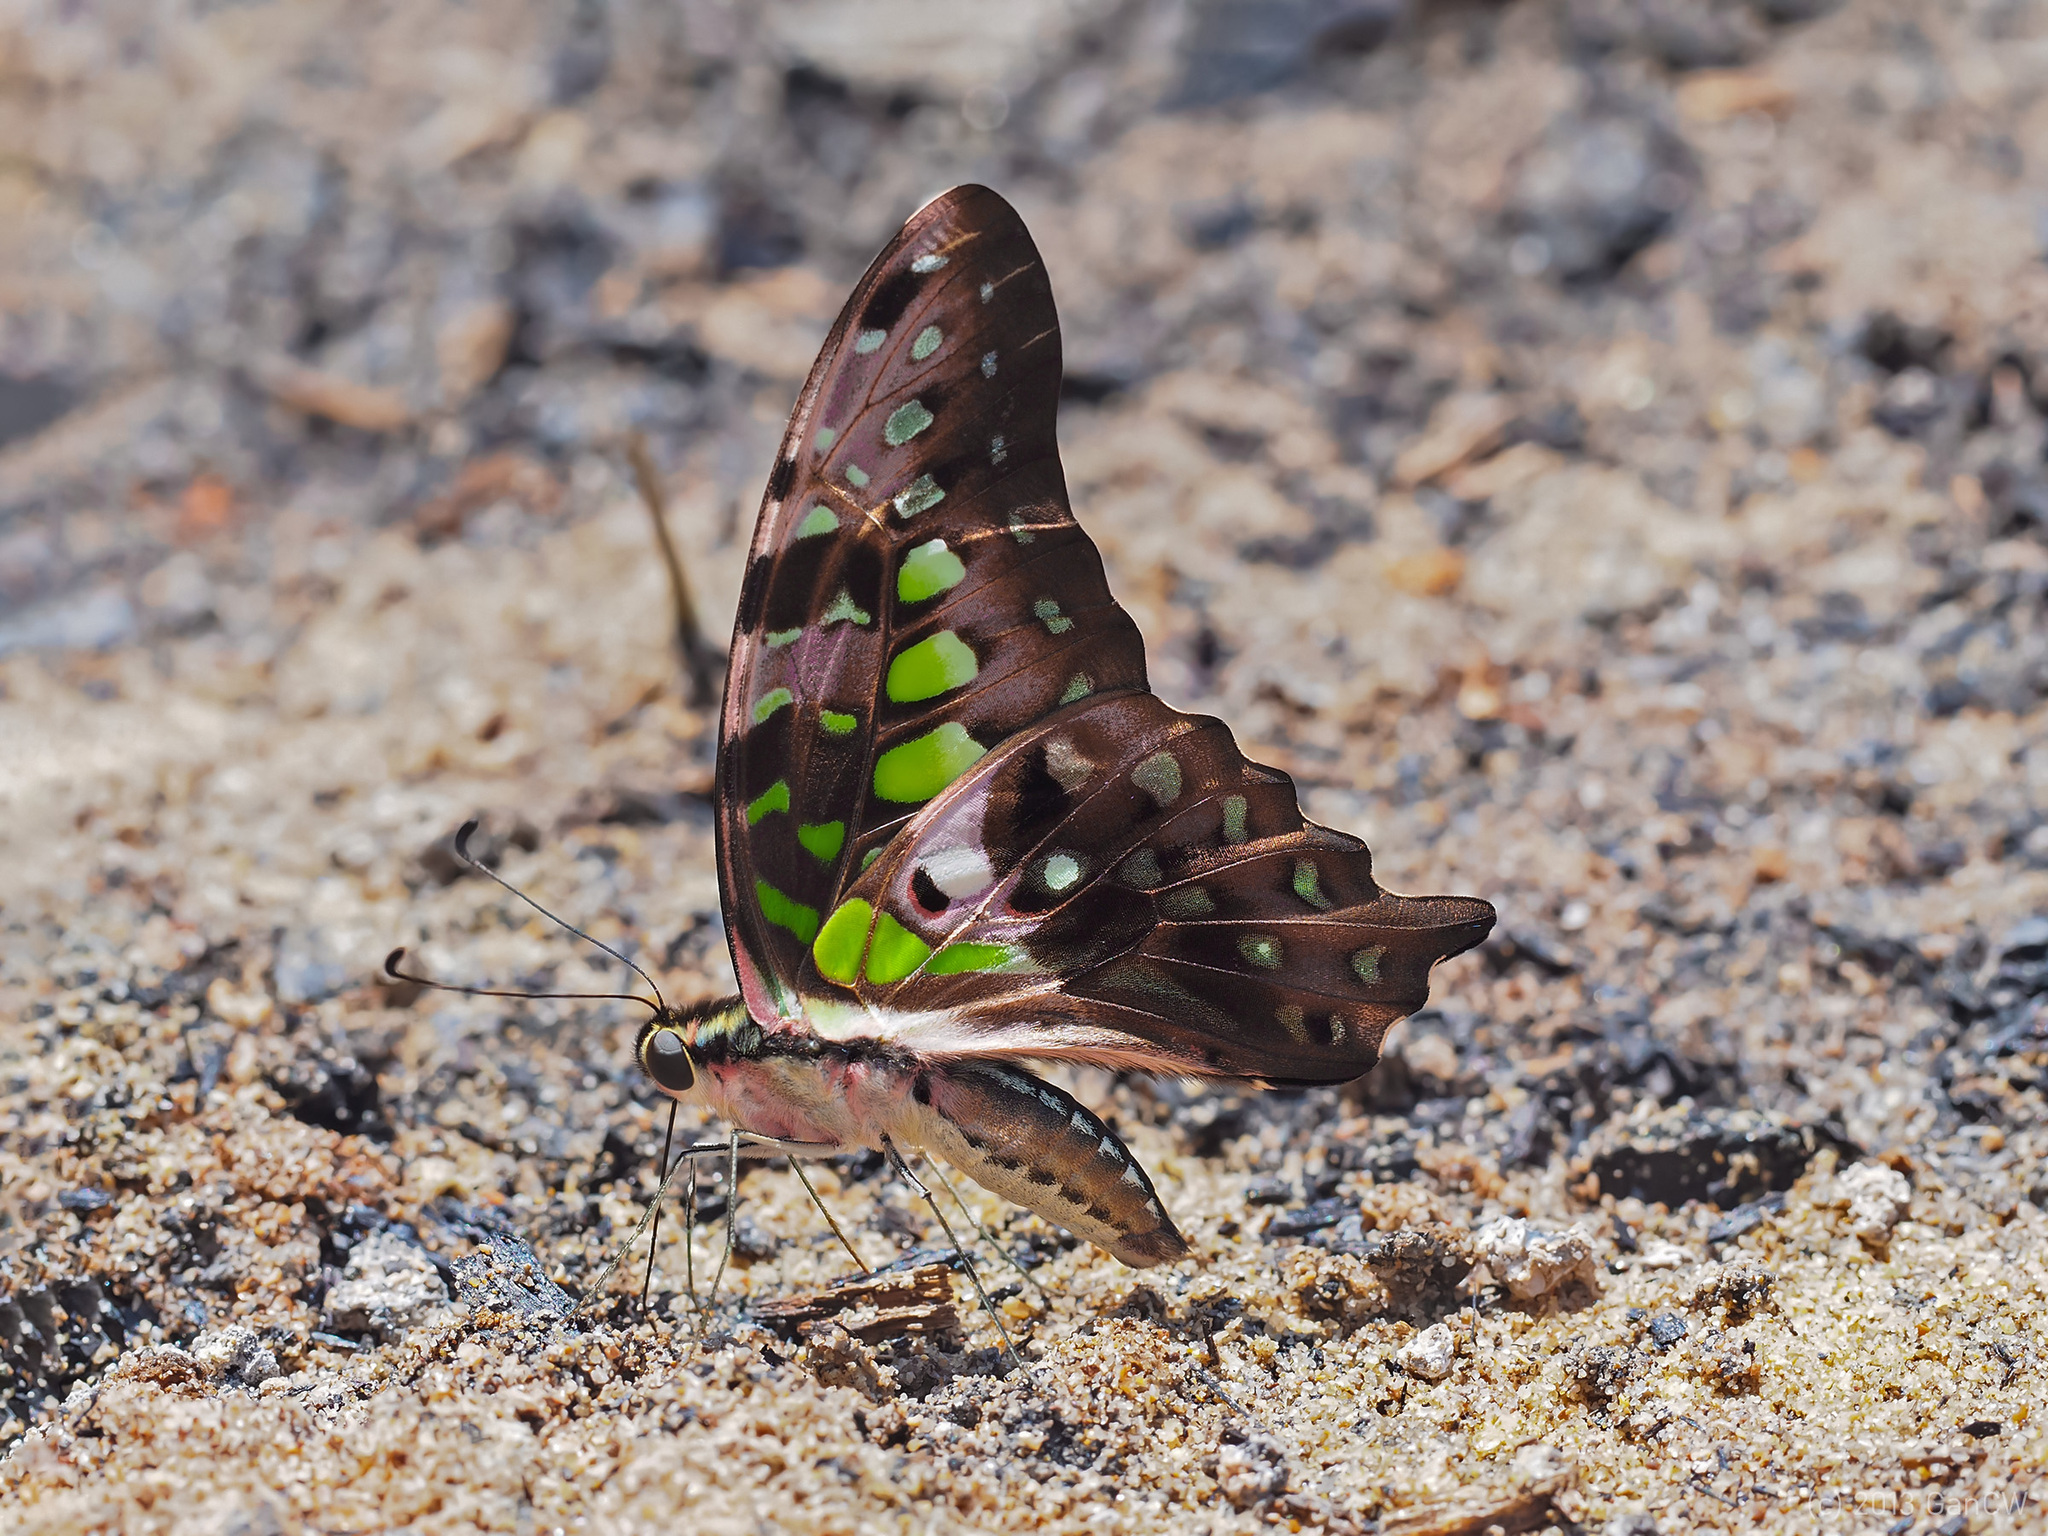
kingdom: Animalia
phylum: Arthropoda
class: Insecta
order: Lepidoptera
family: Papilionidae
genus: Graphium
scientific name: Graphium agamemnon
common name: Tailed jay
